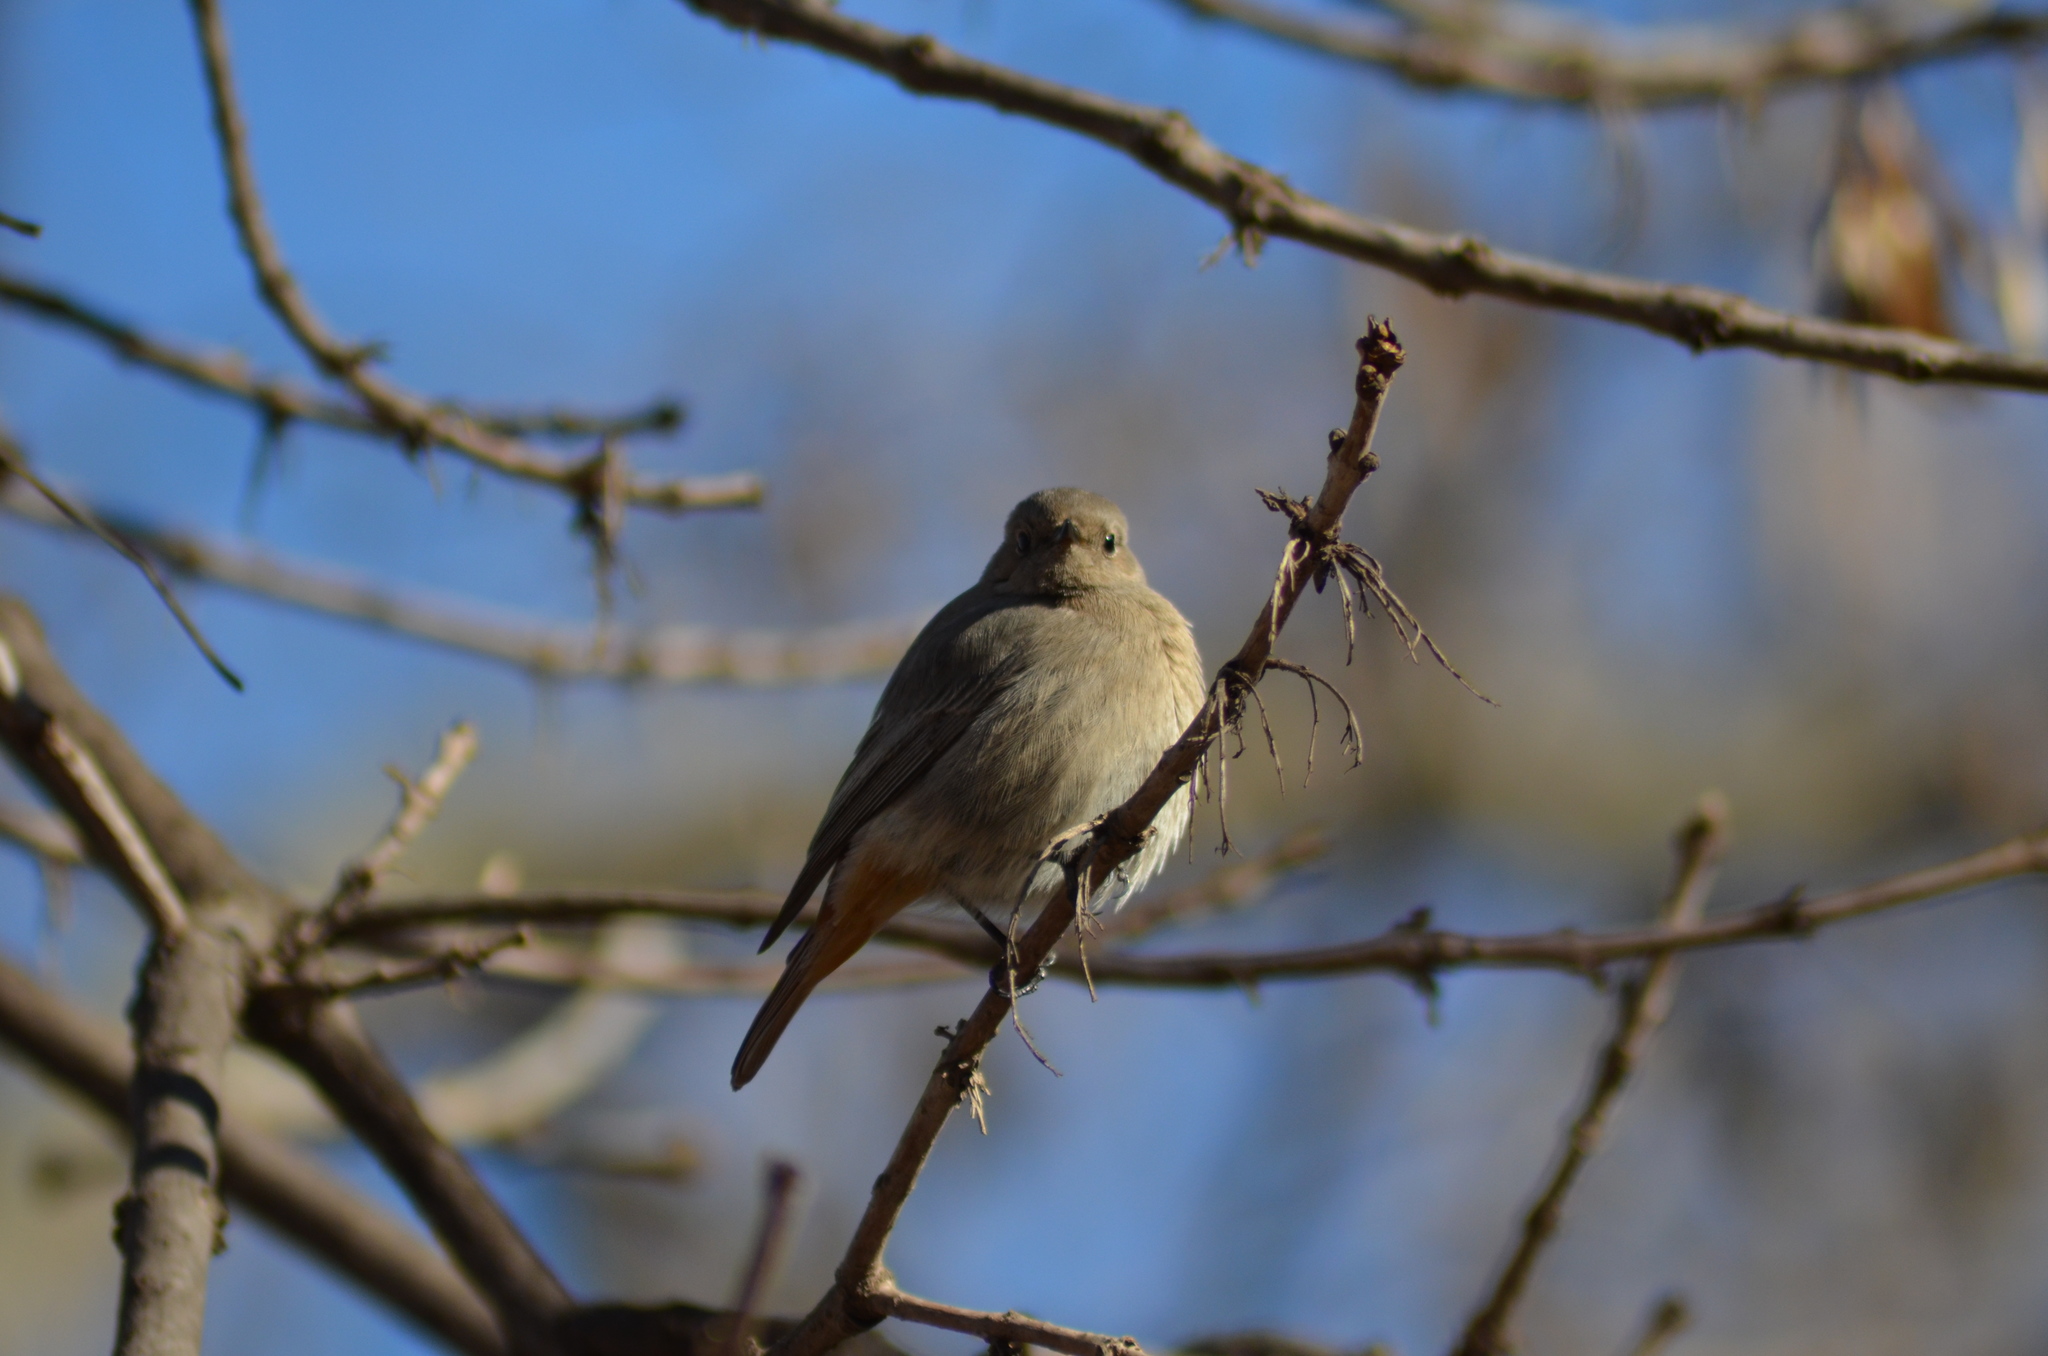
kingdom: Animalia
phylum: Chordata
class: Aves
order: Passeriformes
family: Muscicapidae
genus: Phoenicurus
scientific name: Phoenicurus ochruros
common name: Black redstart
